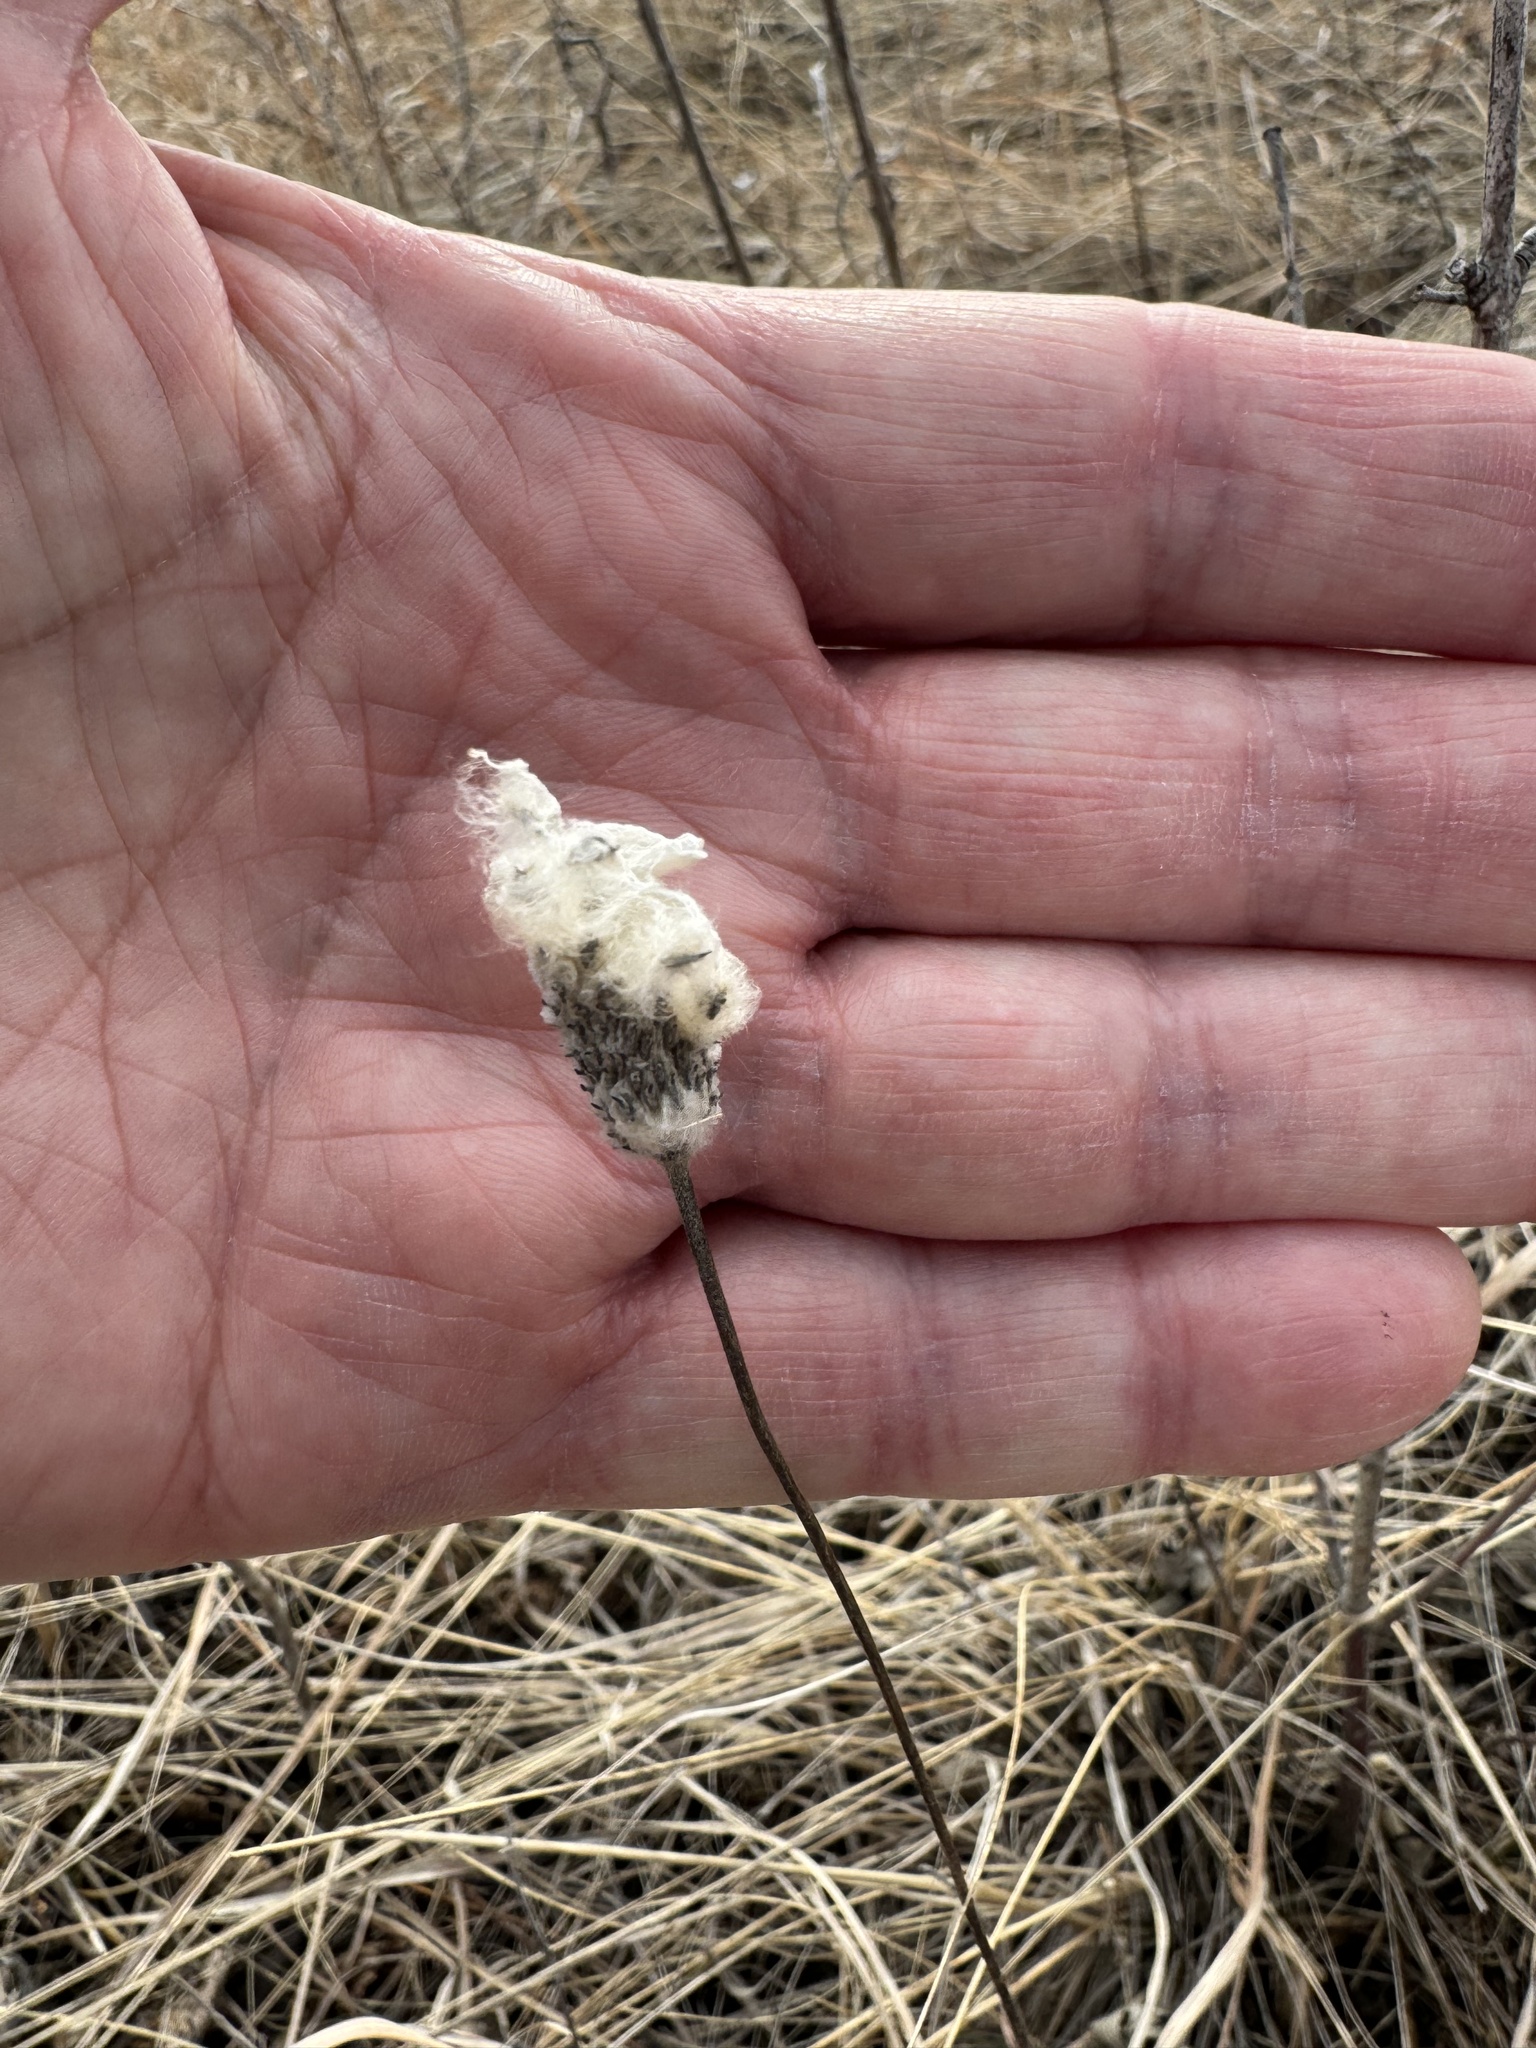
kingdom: Plantae
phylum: Tracheophyta
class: Magnoliopsida
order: Ranunculales
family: Ranunculaceae
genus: Anemone
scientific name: Anemone virginiana
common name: Tall anemone
